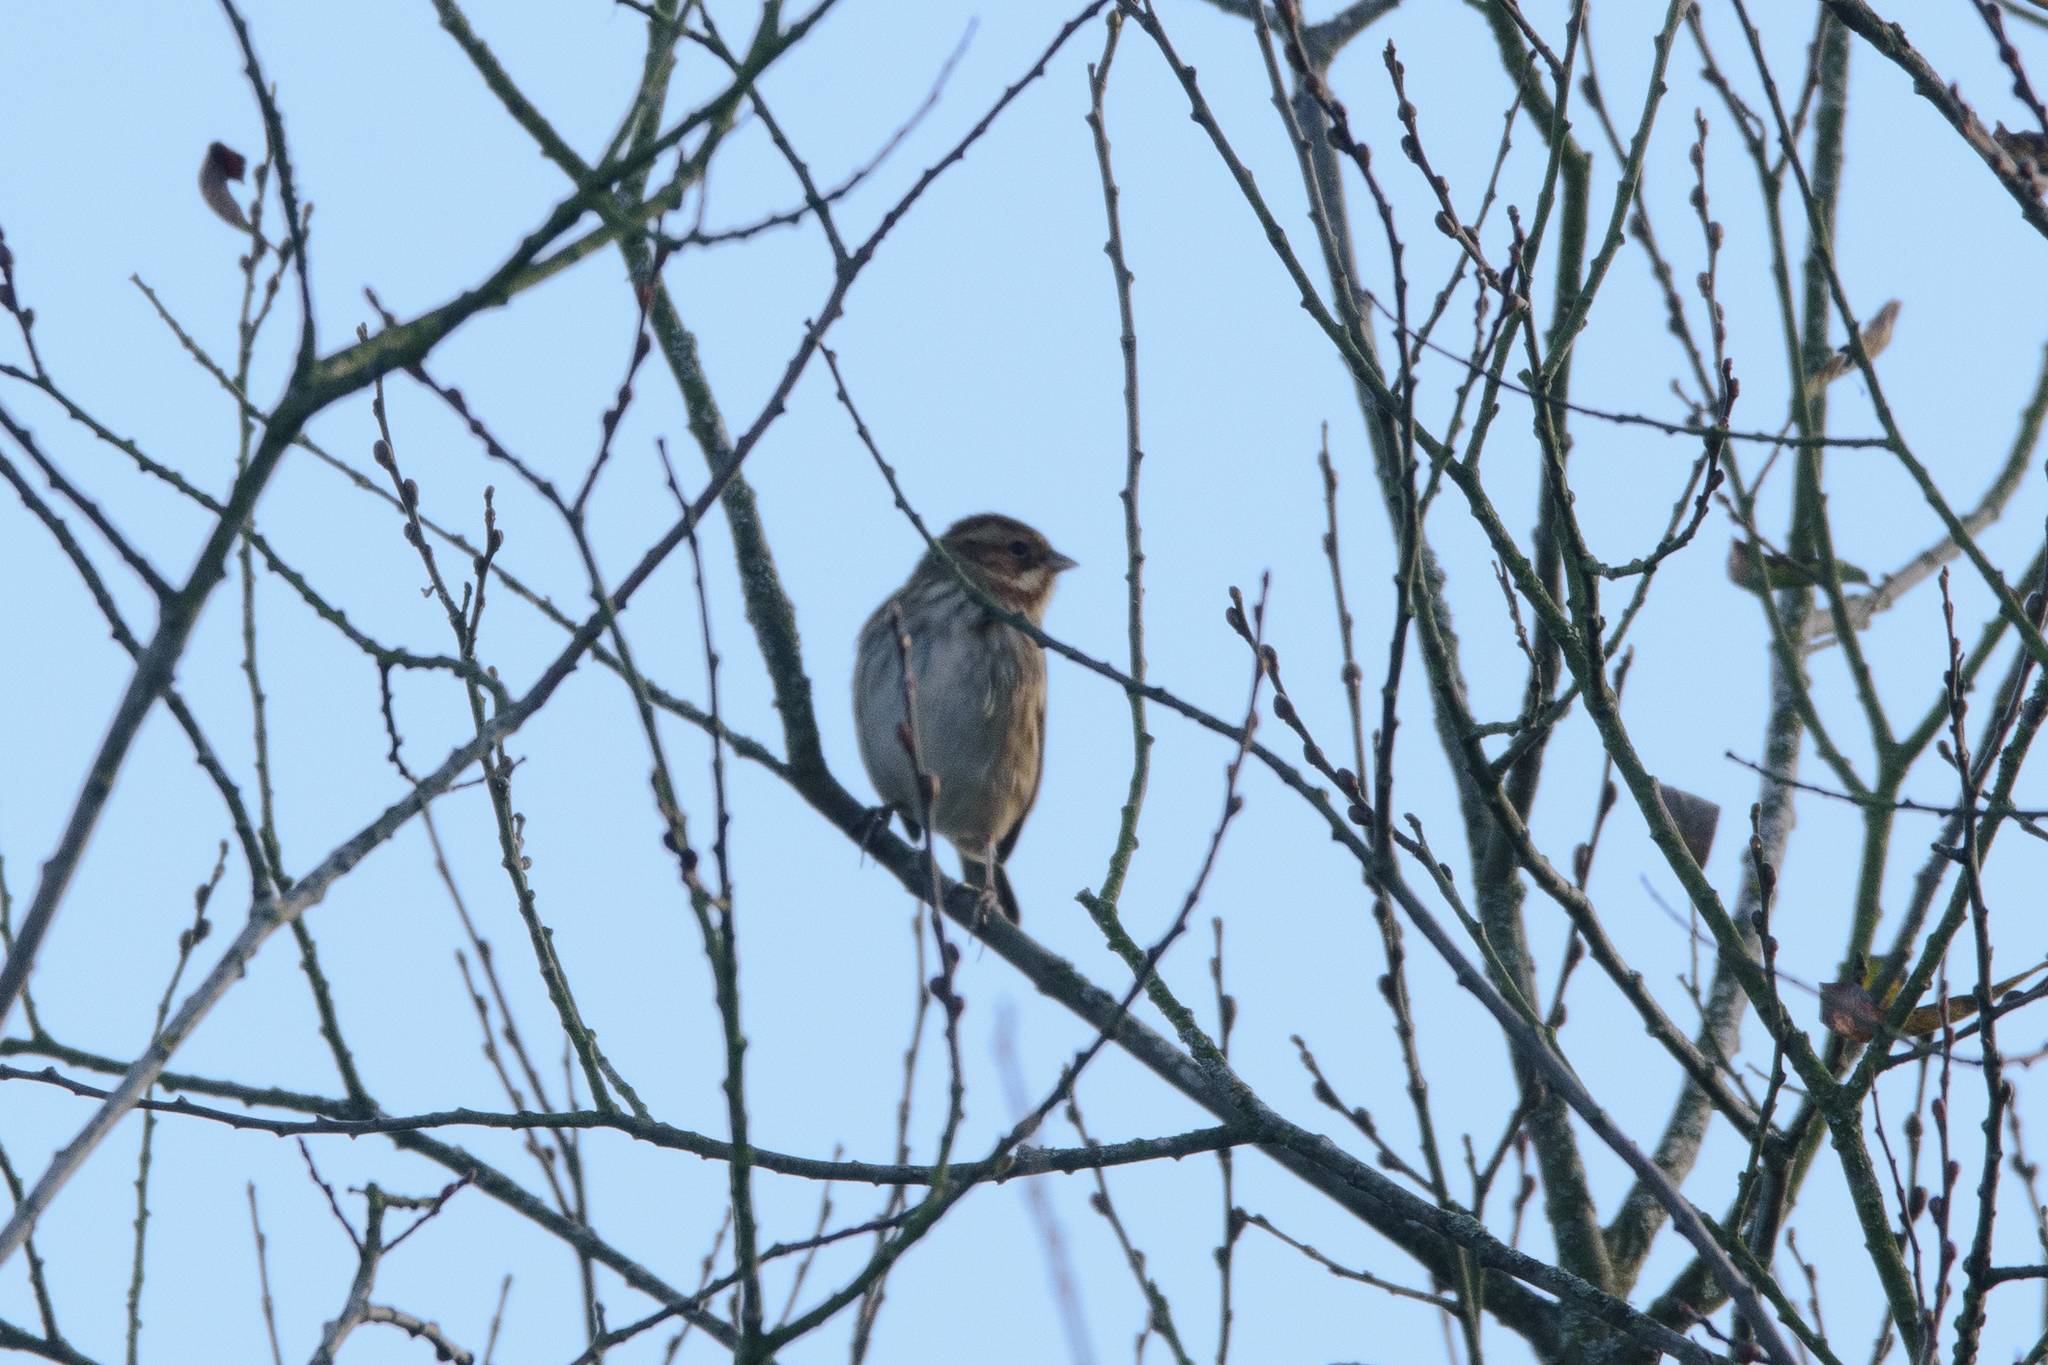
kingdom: Animalia
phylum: Chordata
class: Aves
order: Passeriformes
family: Emberizidae
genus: Emberiza
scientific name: Emberiza schoeniclus
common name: Reed bunting
